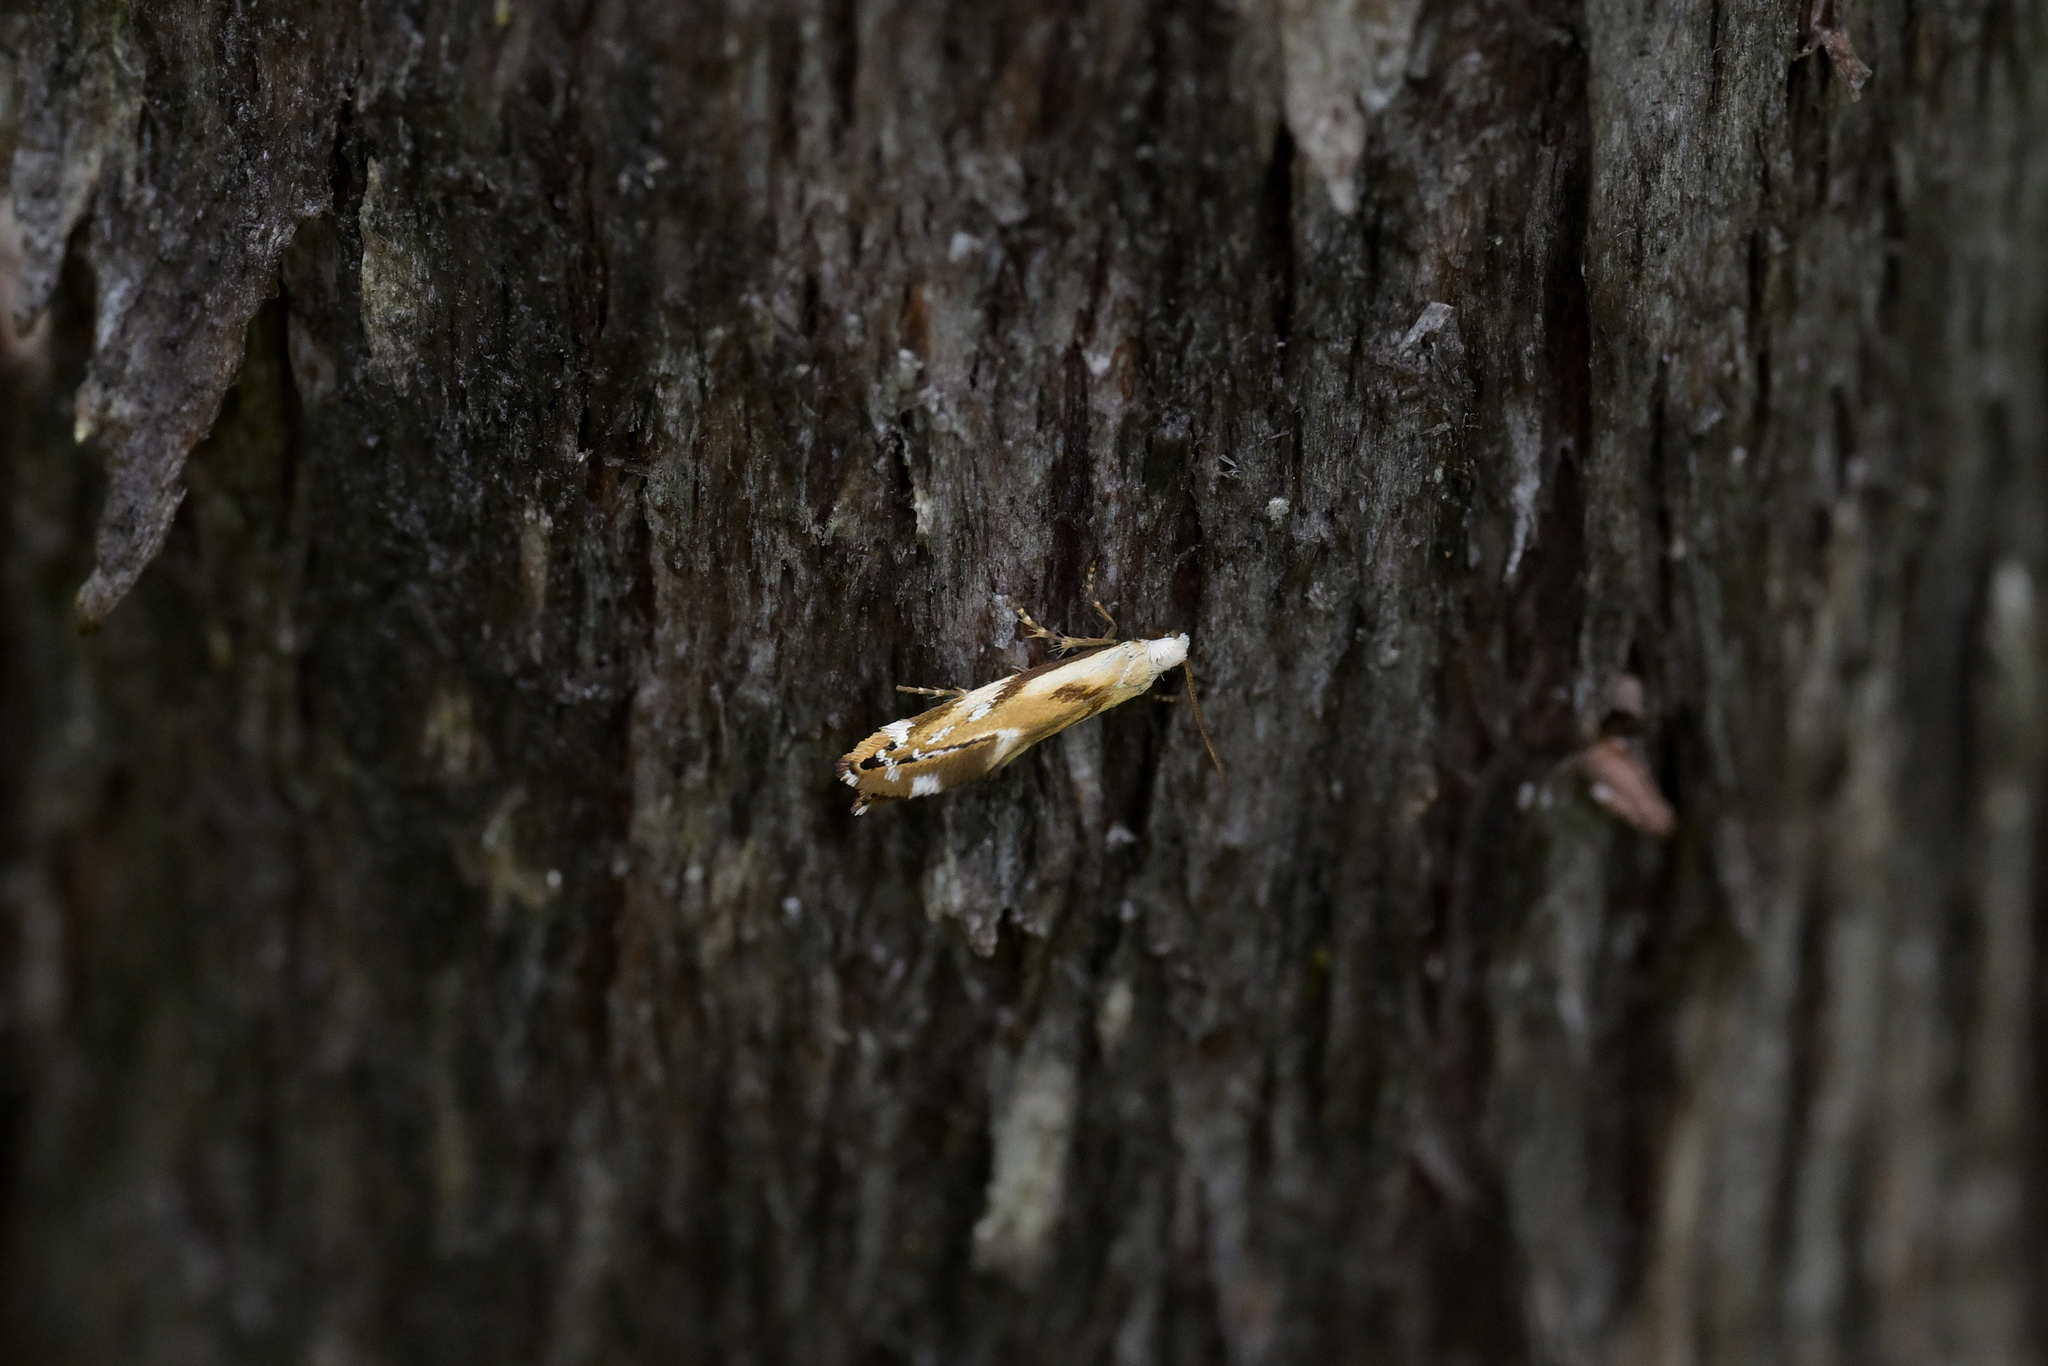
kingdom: Animalia
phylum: Arthropoda
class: Insecta
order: Lepidoptera
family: Mnesarchaeidae
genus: Mnesarchella
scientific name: Mnesarchella acuta
